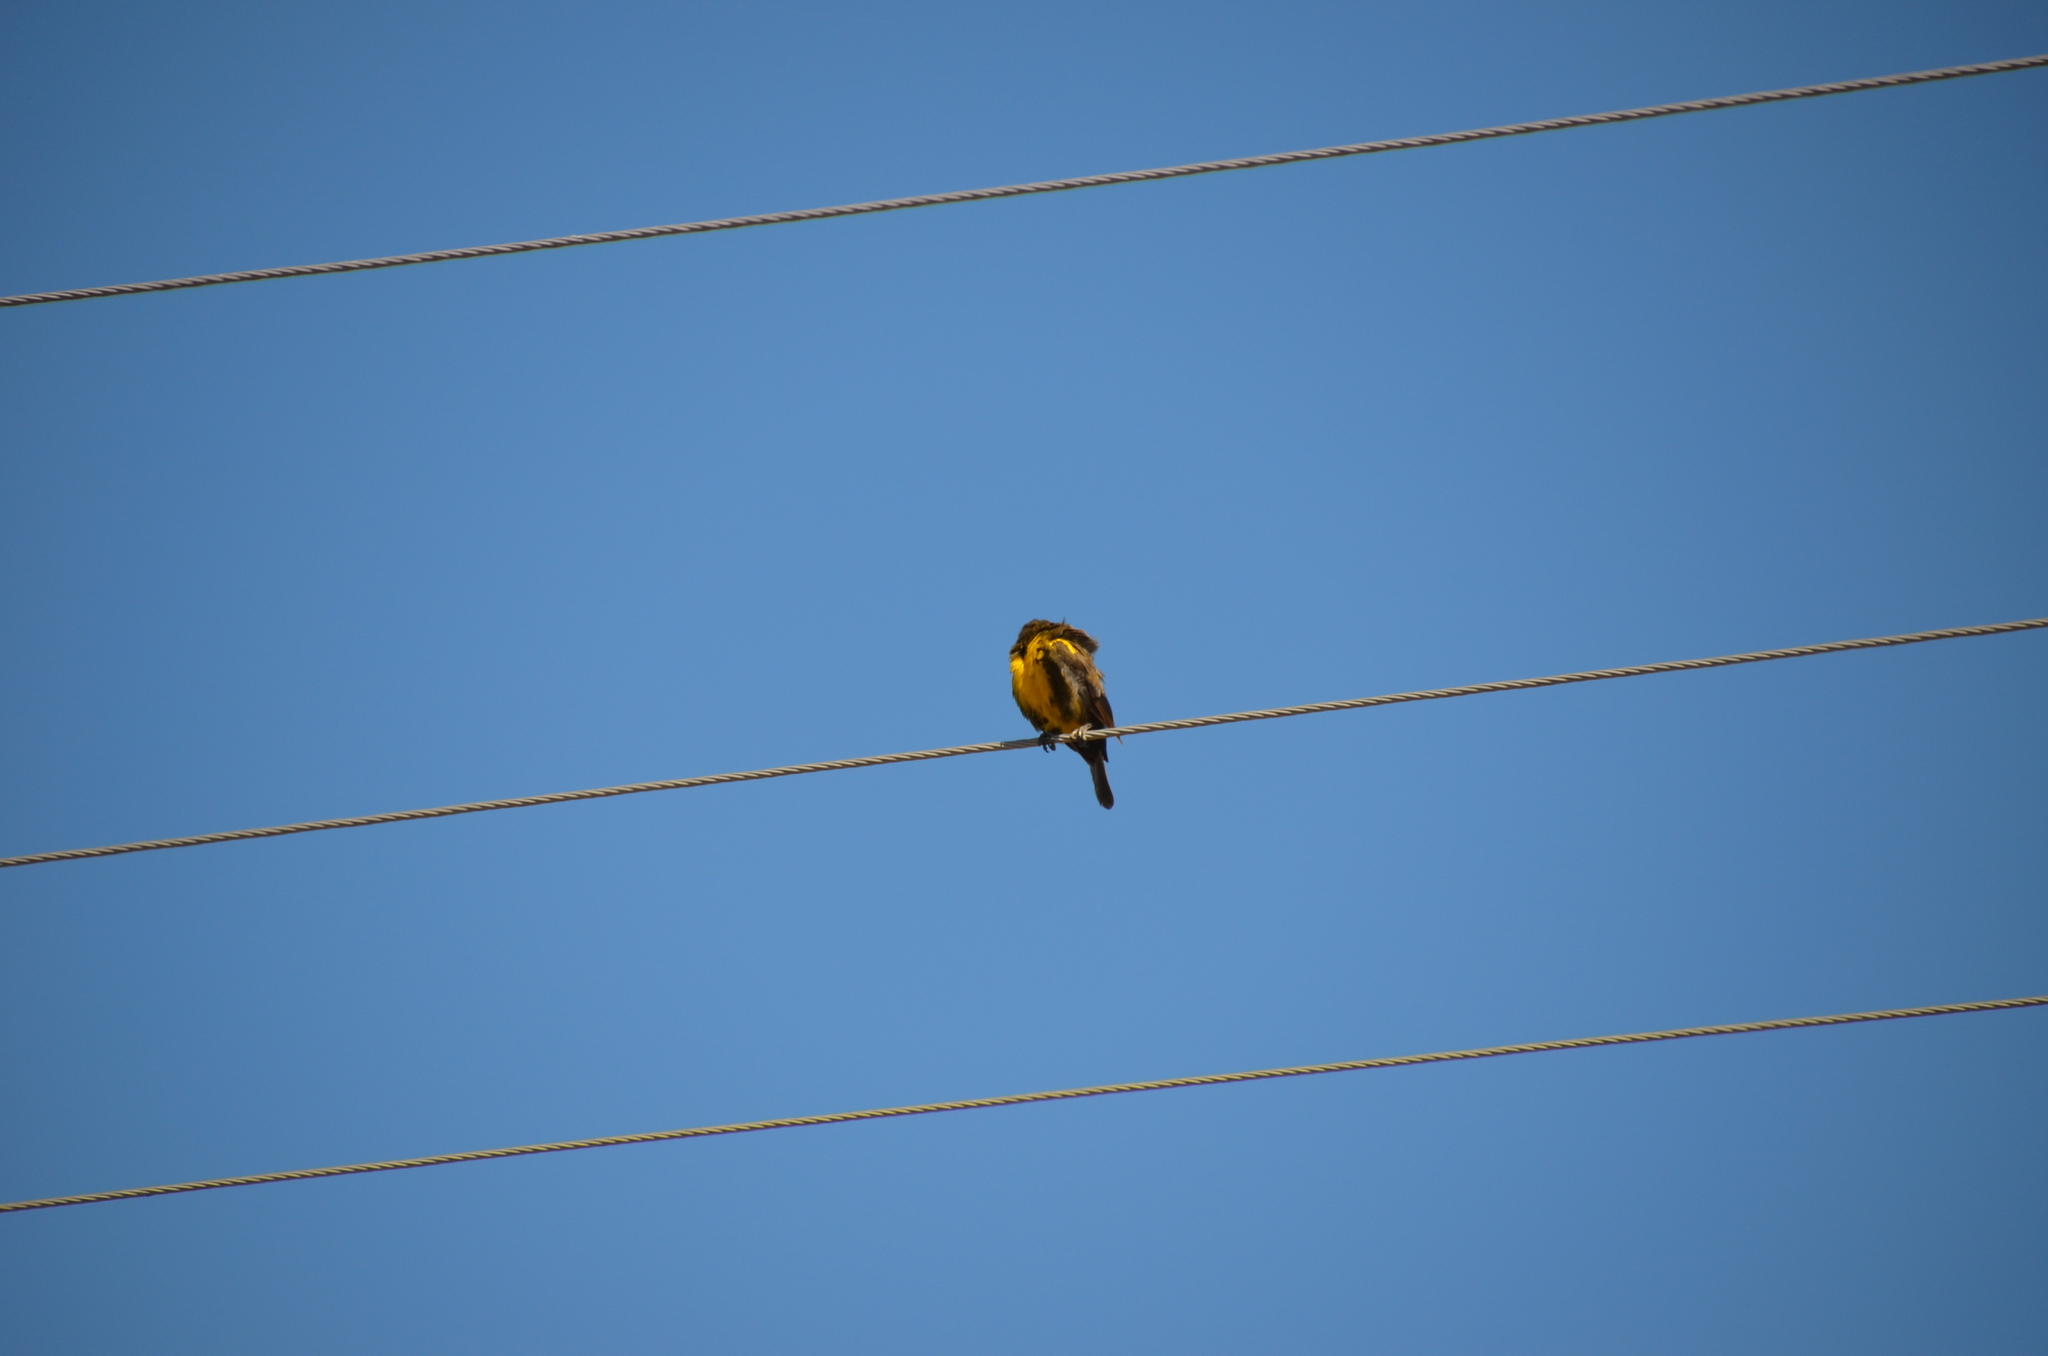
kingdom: Animalia
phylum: Chordata
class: Aves
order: Passeriformes
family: Icteridae
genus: Pseudoleistes
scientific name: Pseudoleistes virescens
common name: Brown-and-yellow marshbird
